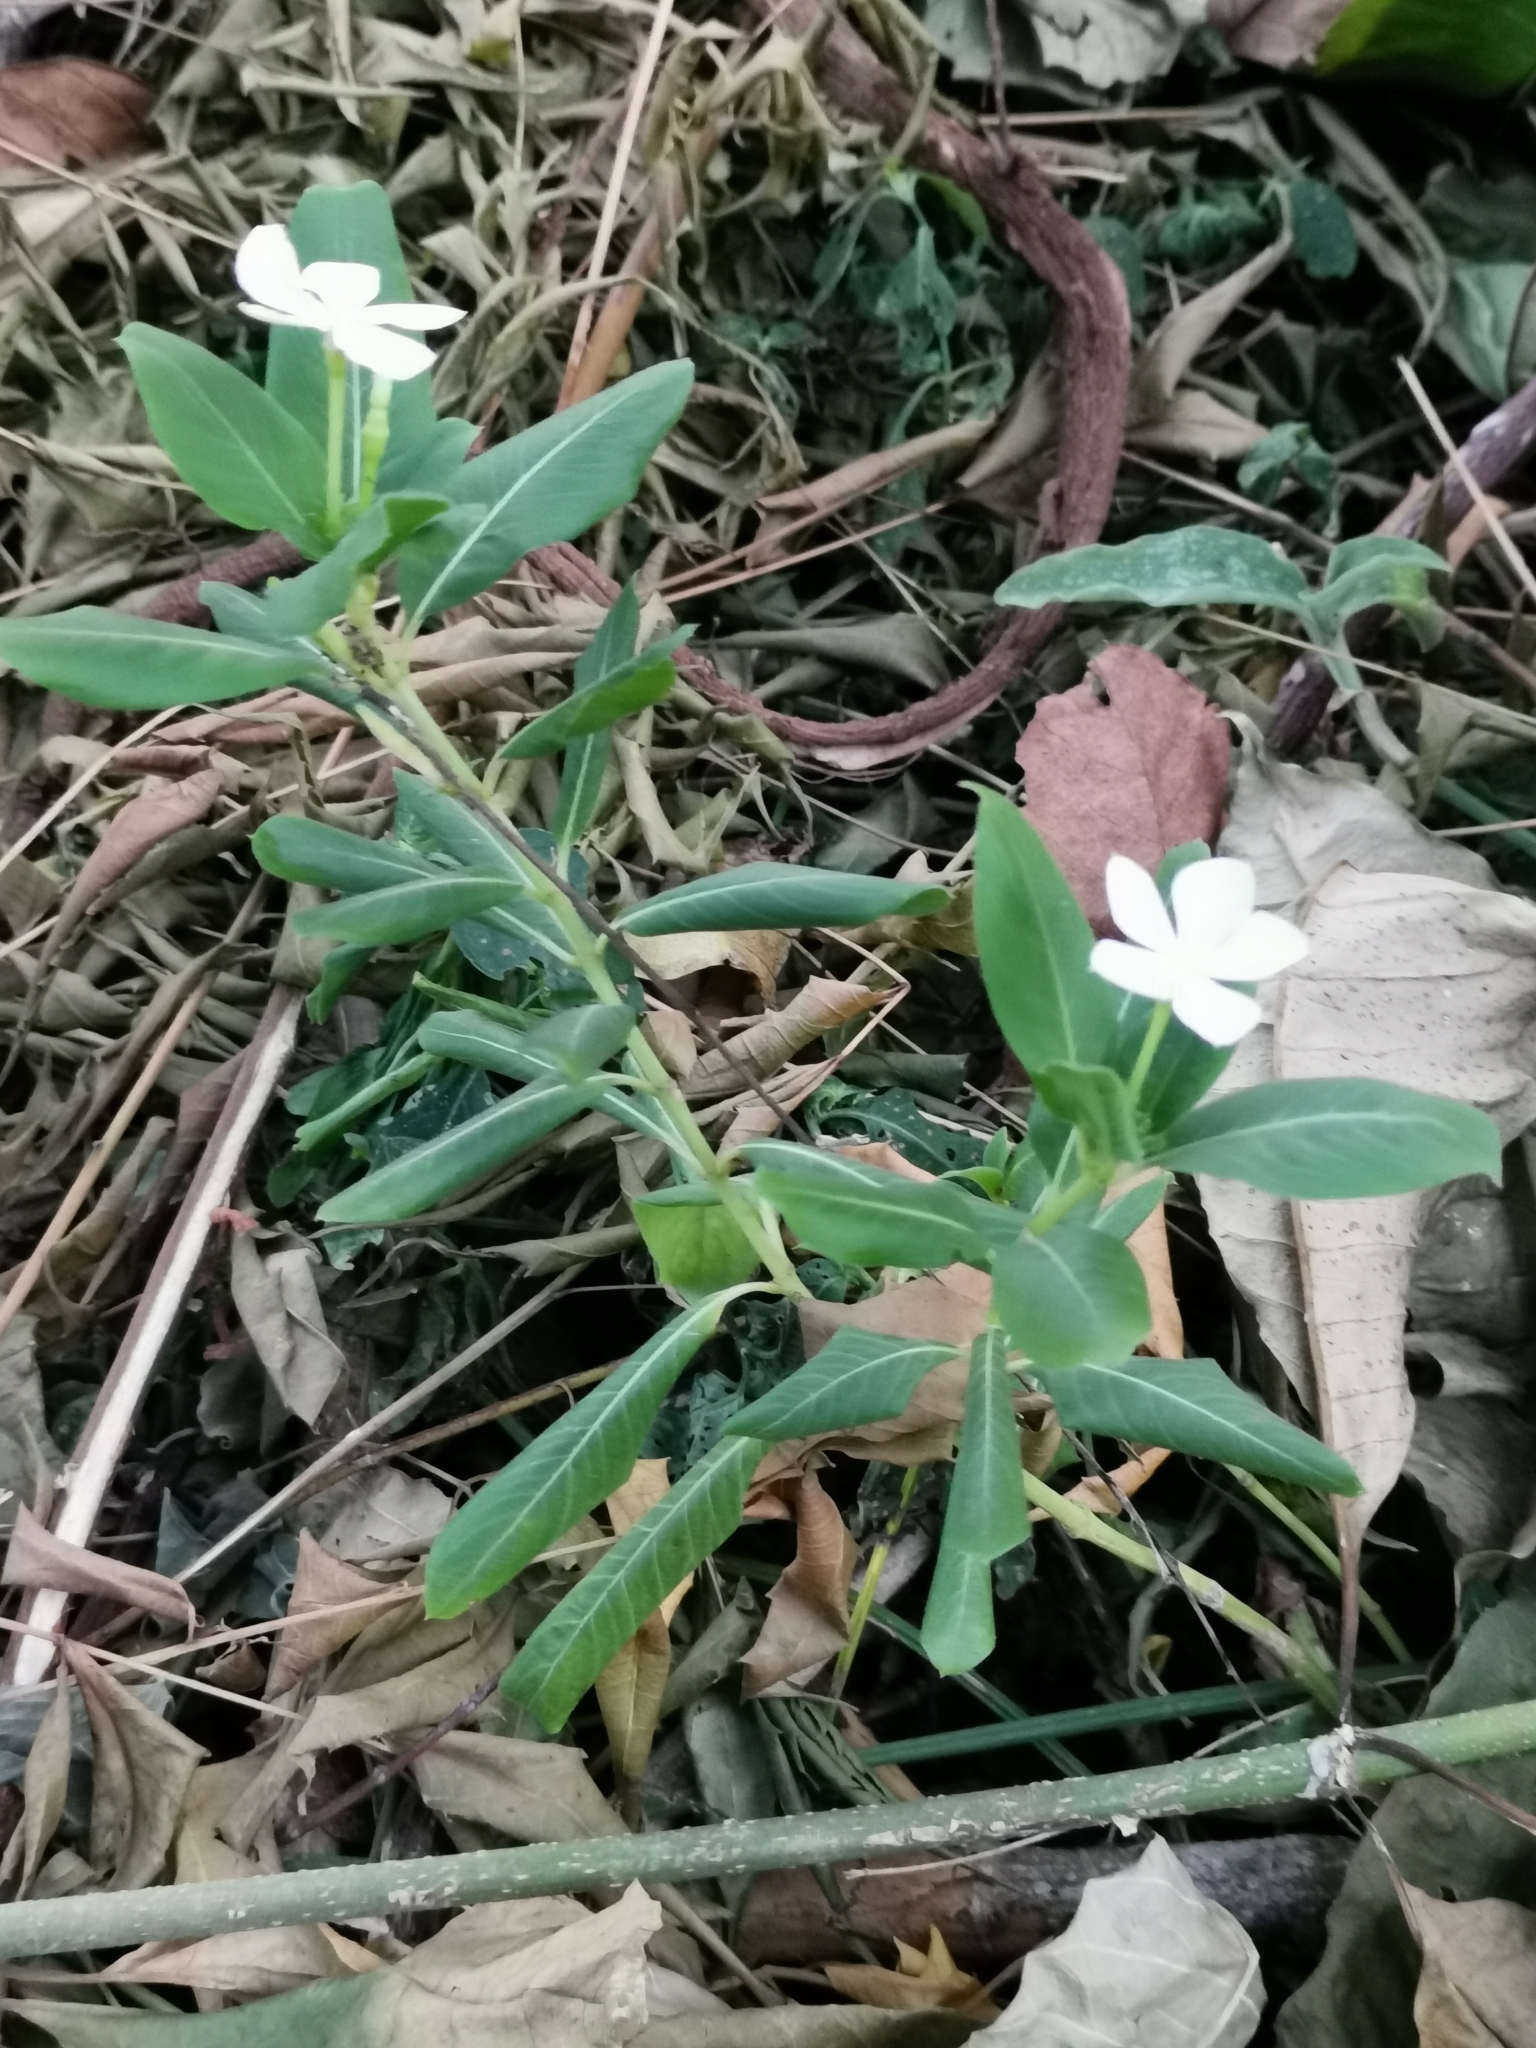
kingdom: Plantae
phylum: Tracheophyta
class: Magnoliopsida
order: Gentianales
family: Apocynaceae
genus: Catharanthus
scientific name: Catharanthus roseus
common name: Madagascar periwinkle
